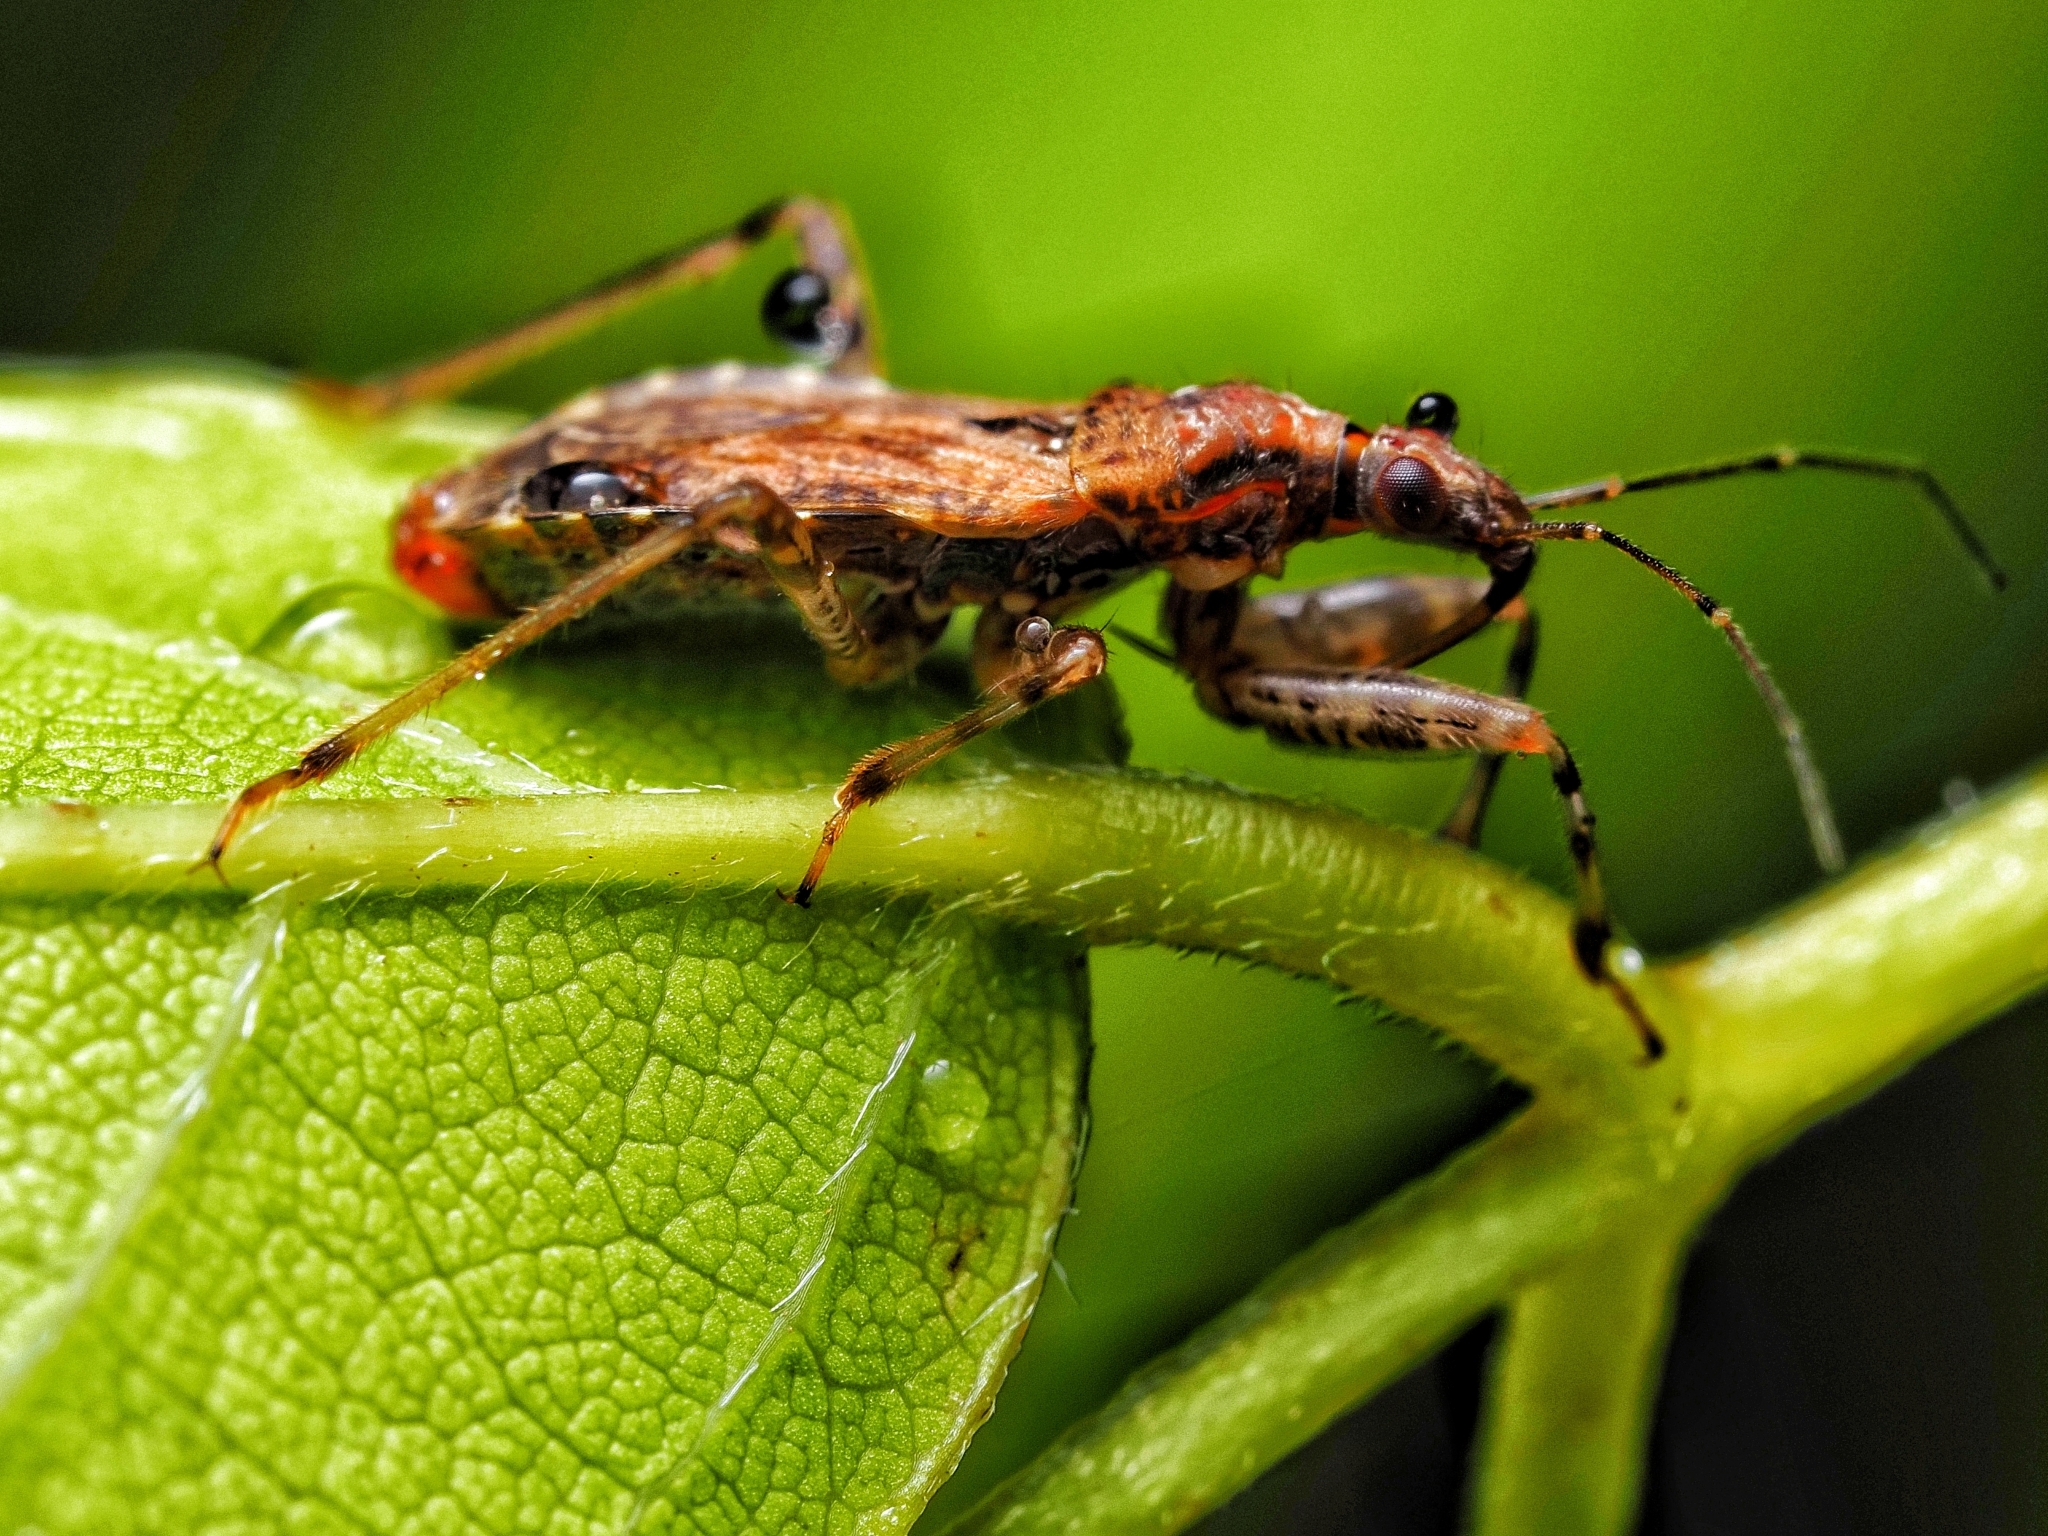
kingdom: Animalia
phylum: Arthropoda
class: Insecta
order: Hemiptera
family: Nabidae
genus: Himacerus
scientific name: Himacerus mirmicoides
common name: Ant damsel bug
